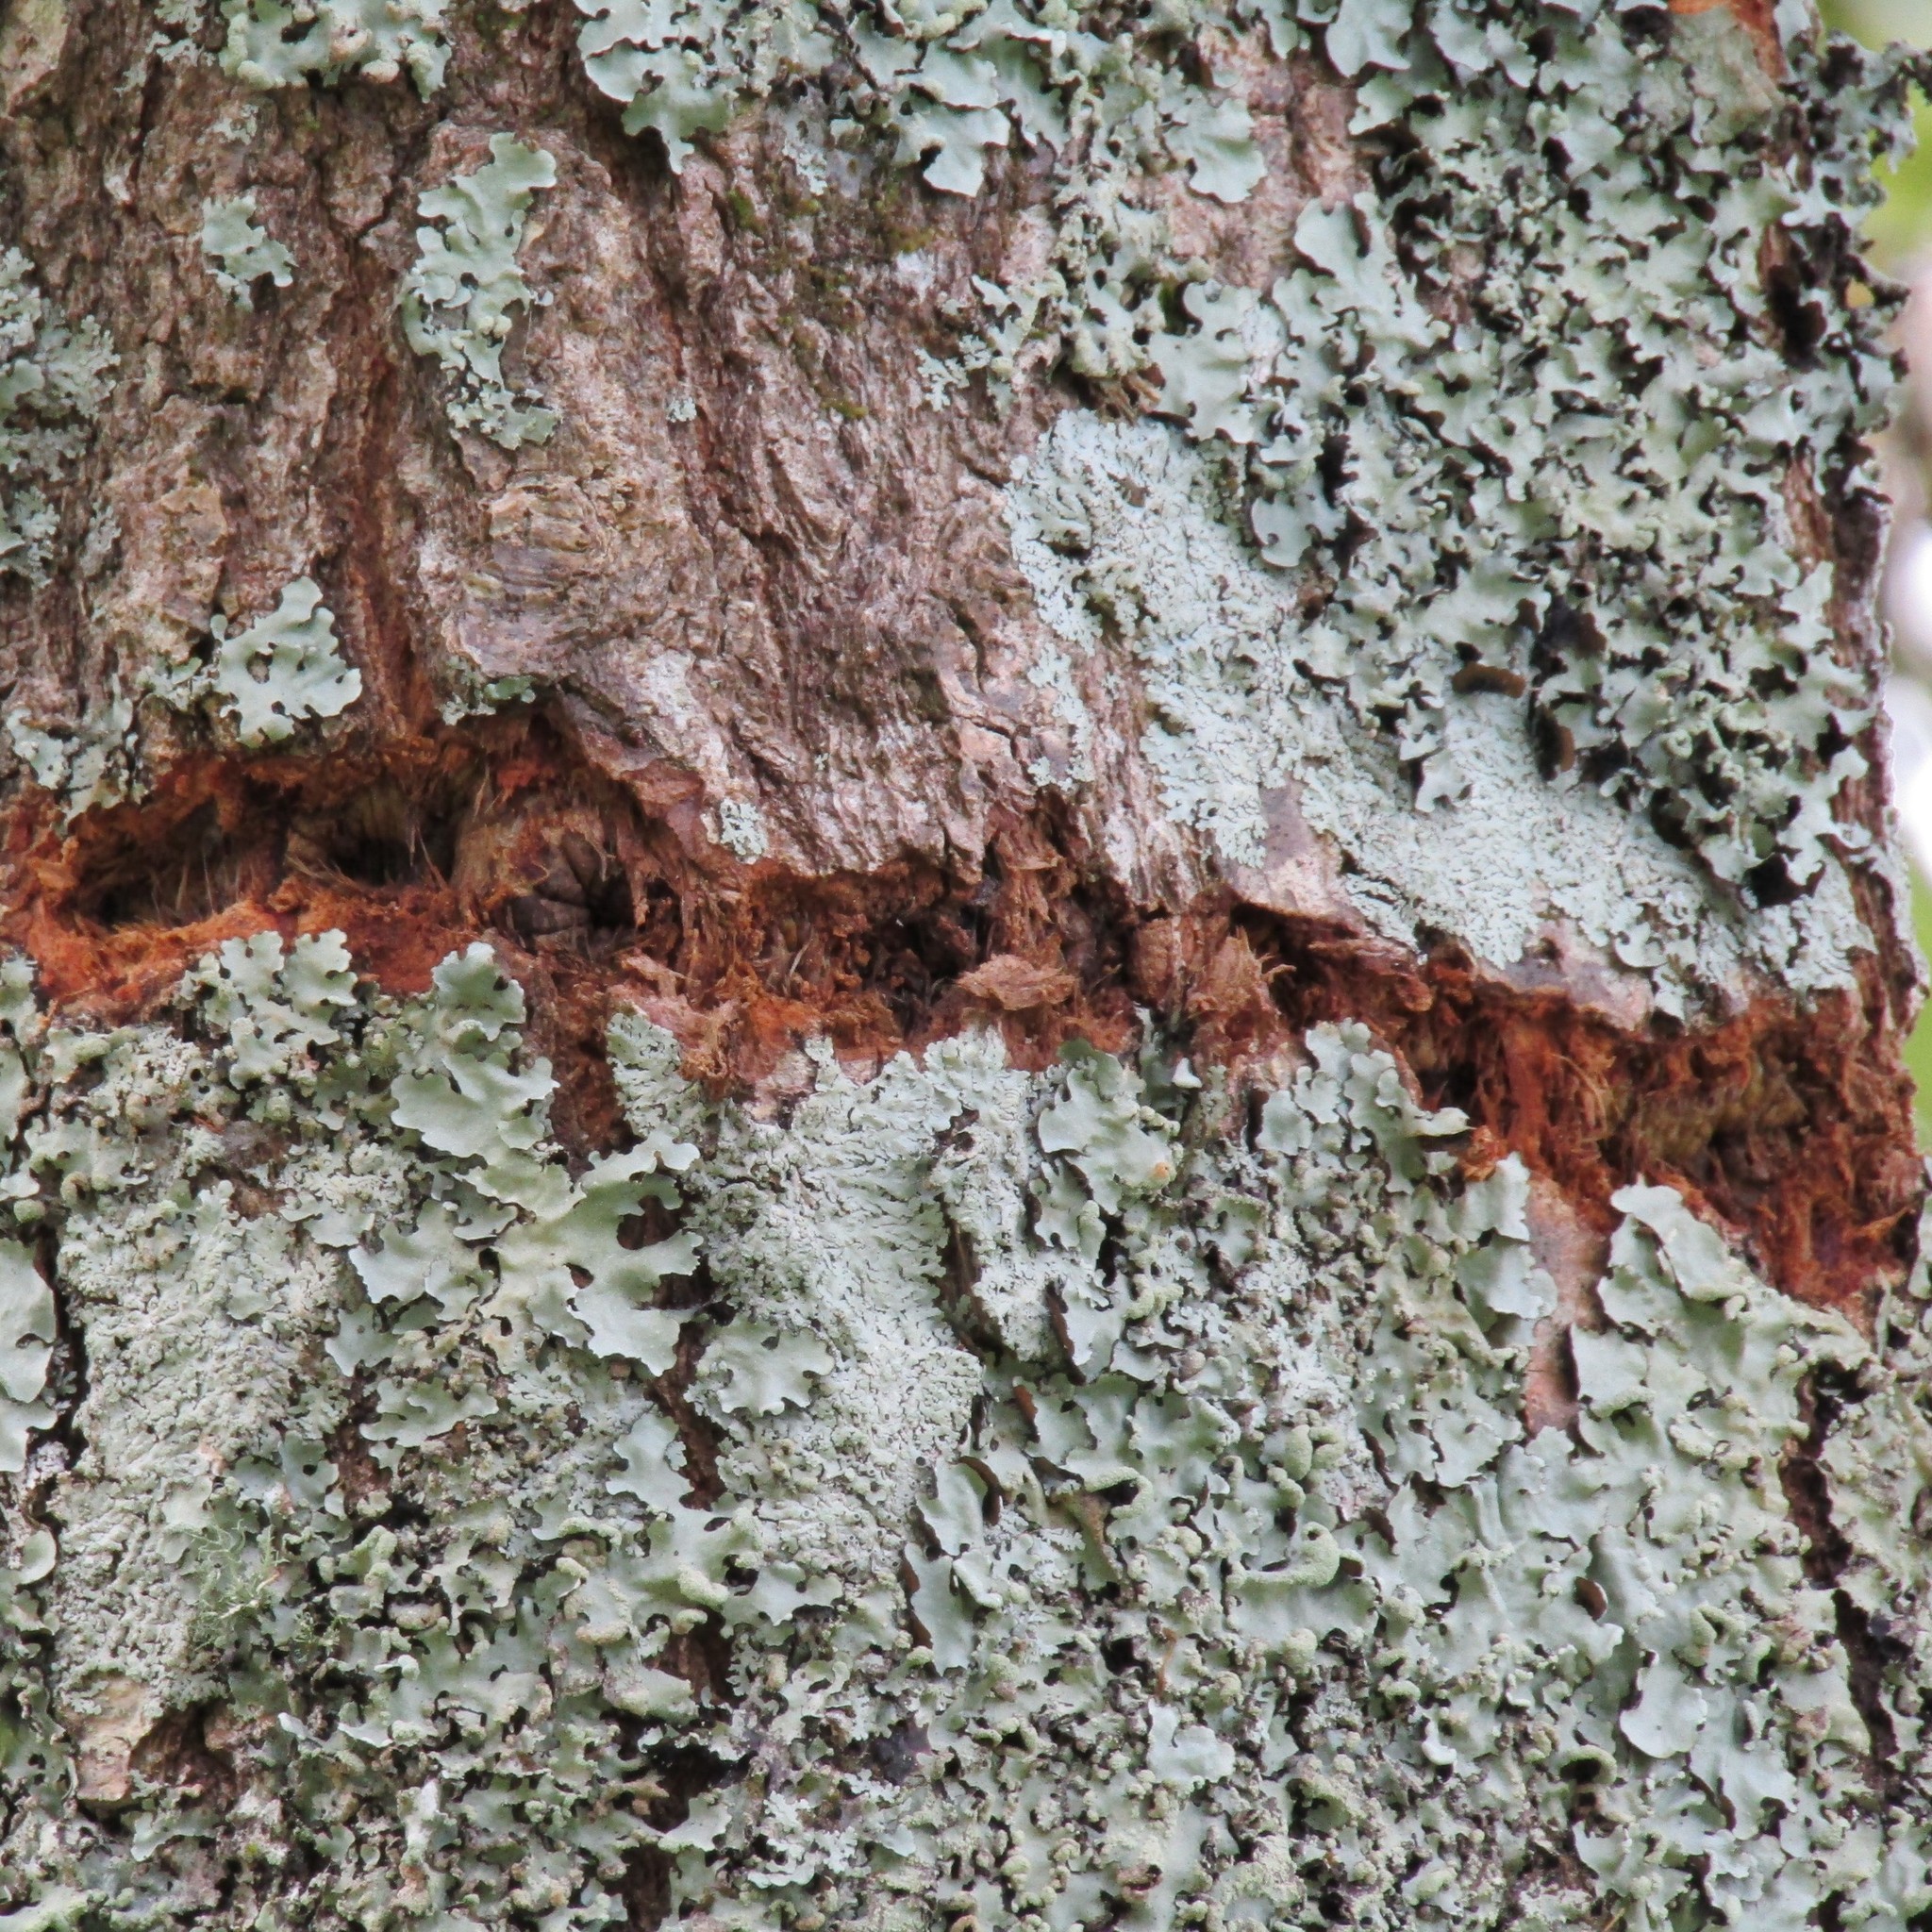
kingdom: Animalia
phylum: Chordata
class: Aves
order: Psittaciformes
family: Psittacidae
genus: Nestor
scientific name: Nestor meridionalis
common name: New zealand kaka
